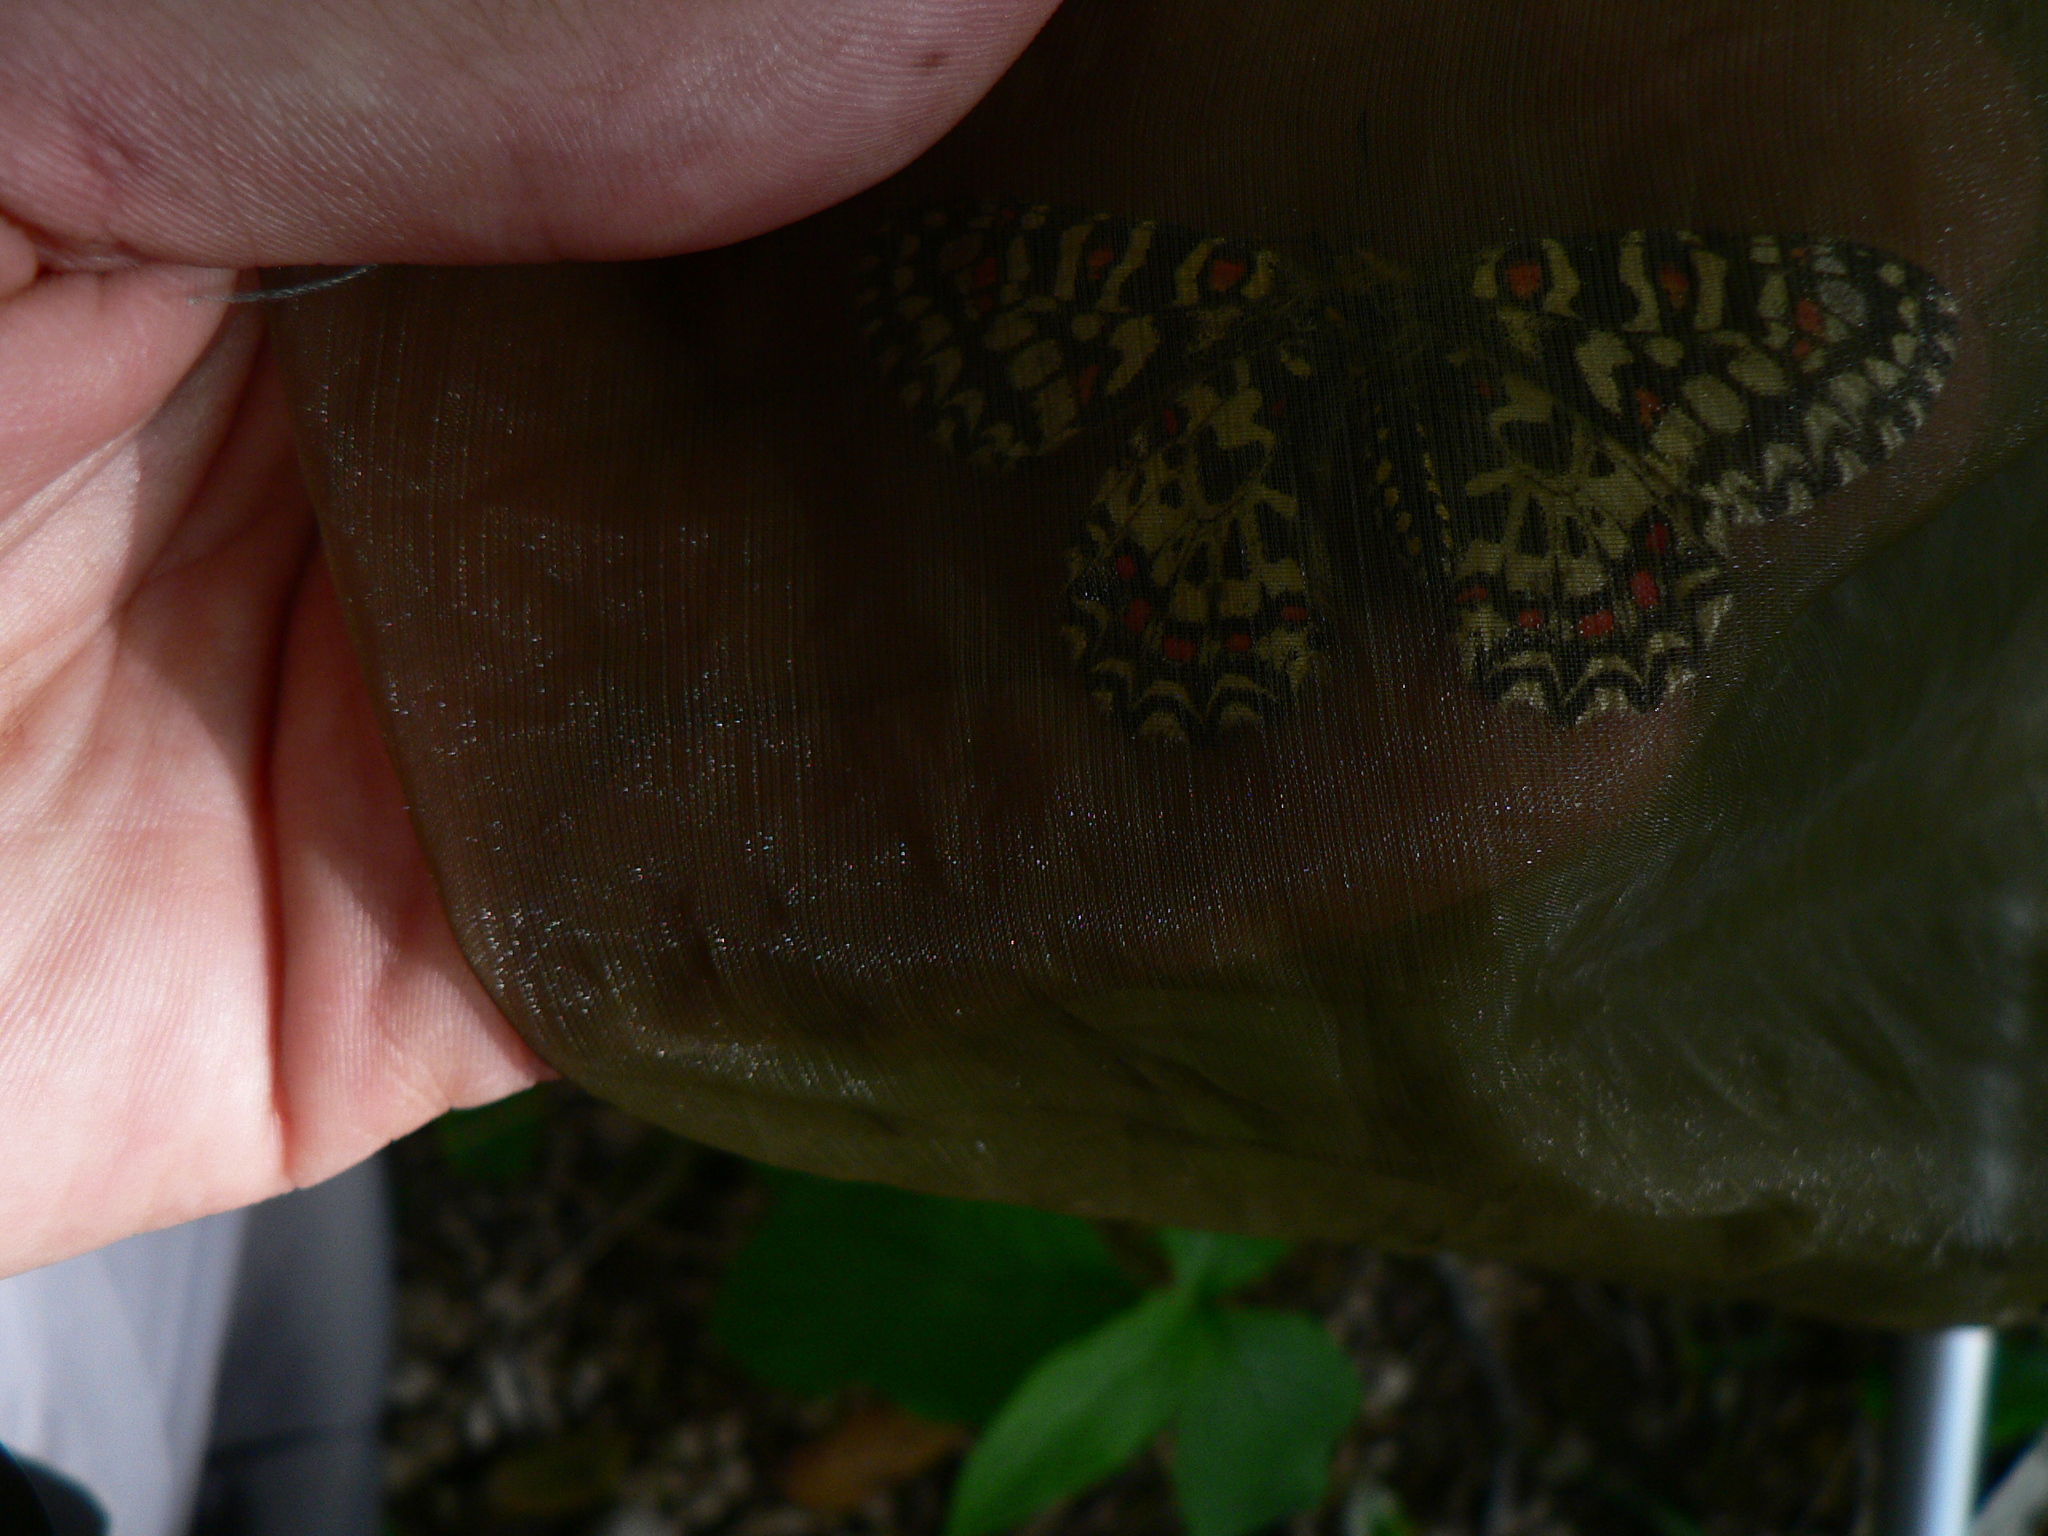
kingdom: Animalia
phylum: Arthropoda
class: Insecta
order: Lepidoptera
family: Papilionidae
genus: Zerynthia
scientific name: Zerynthia rumina
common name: Spanish festoon
